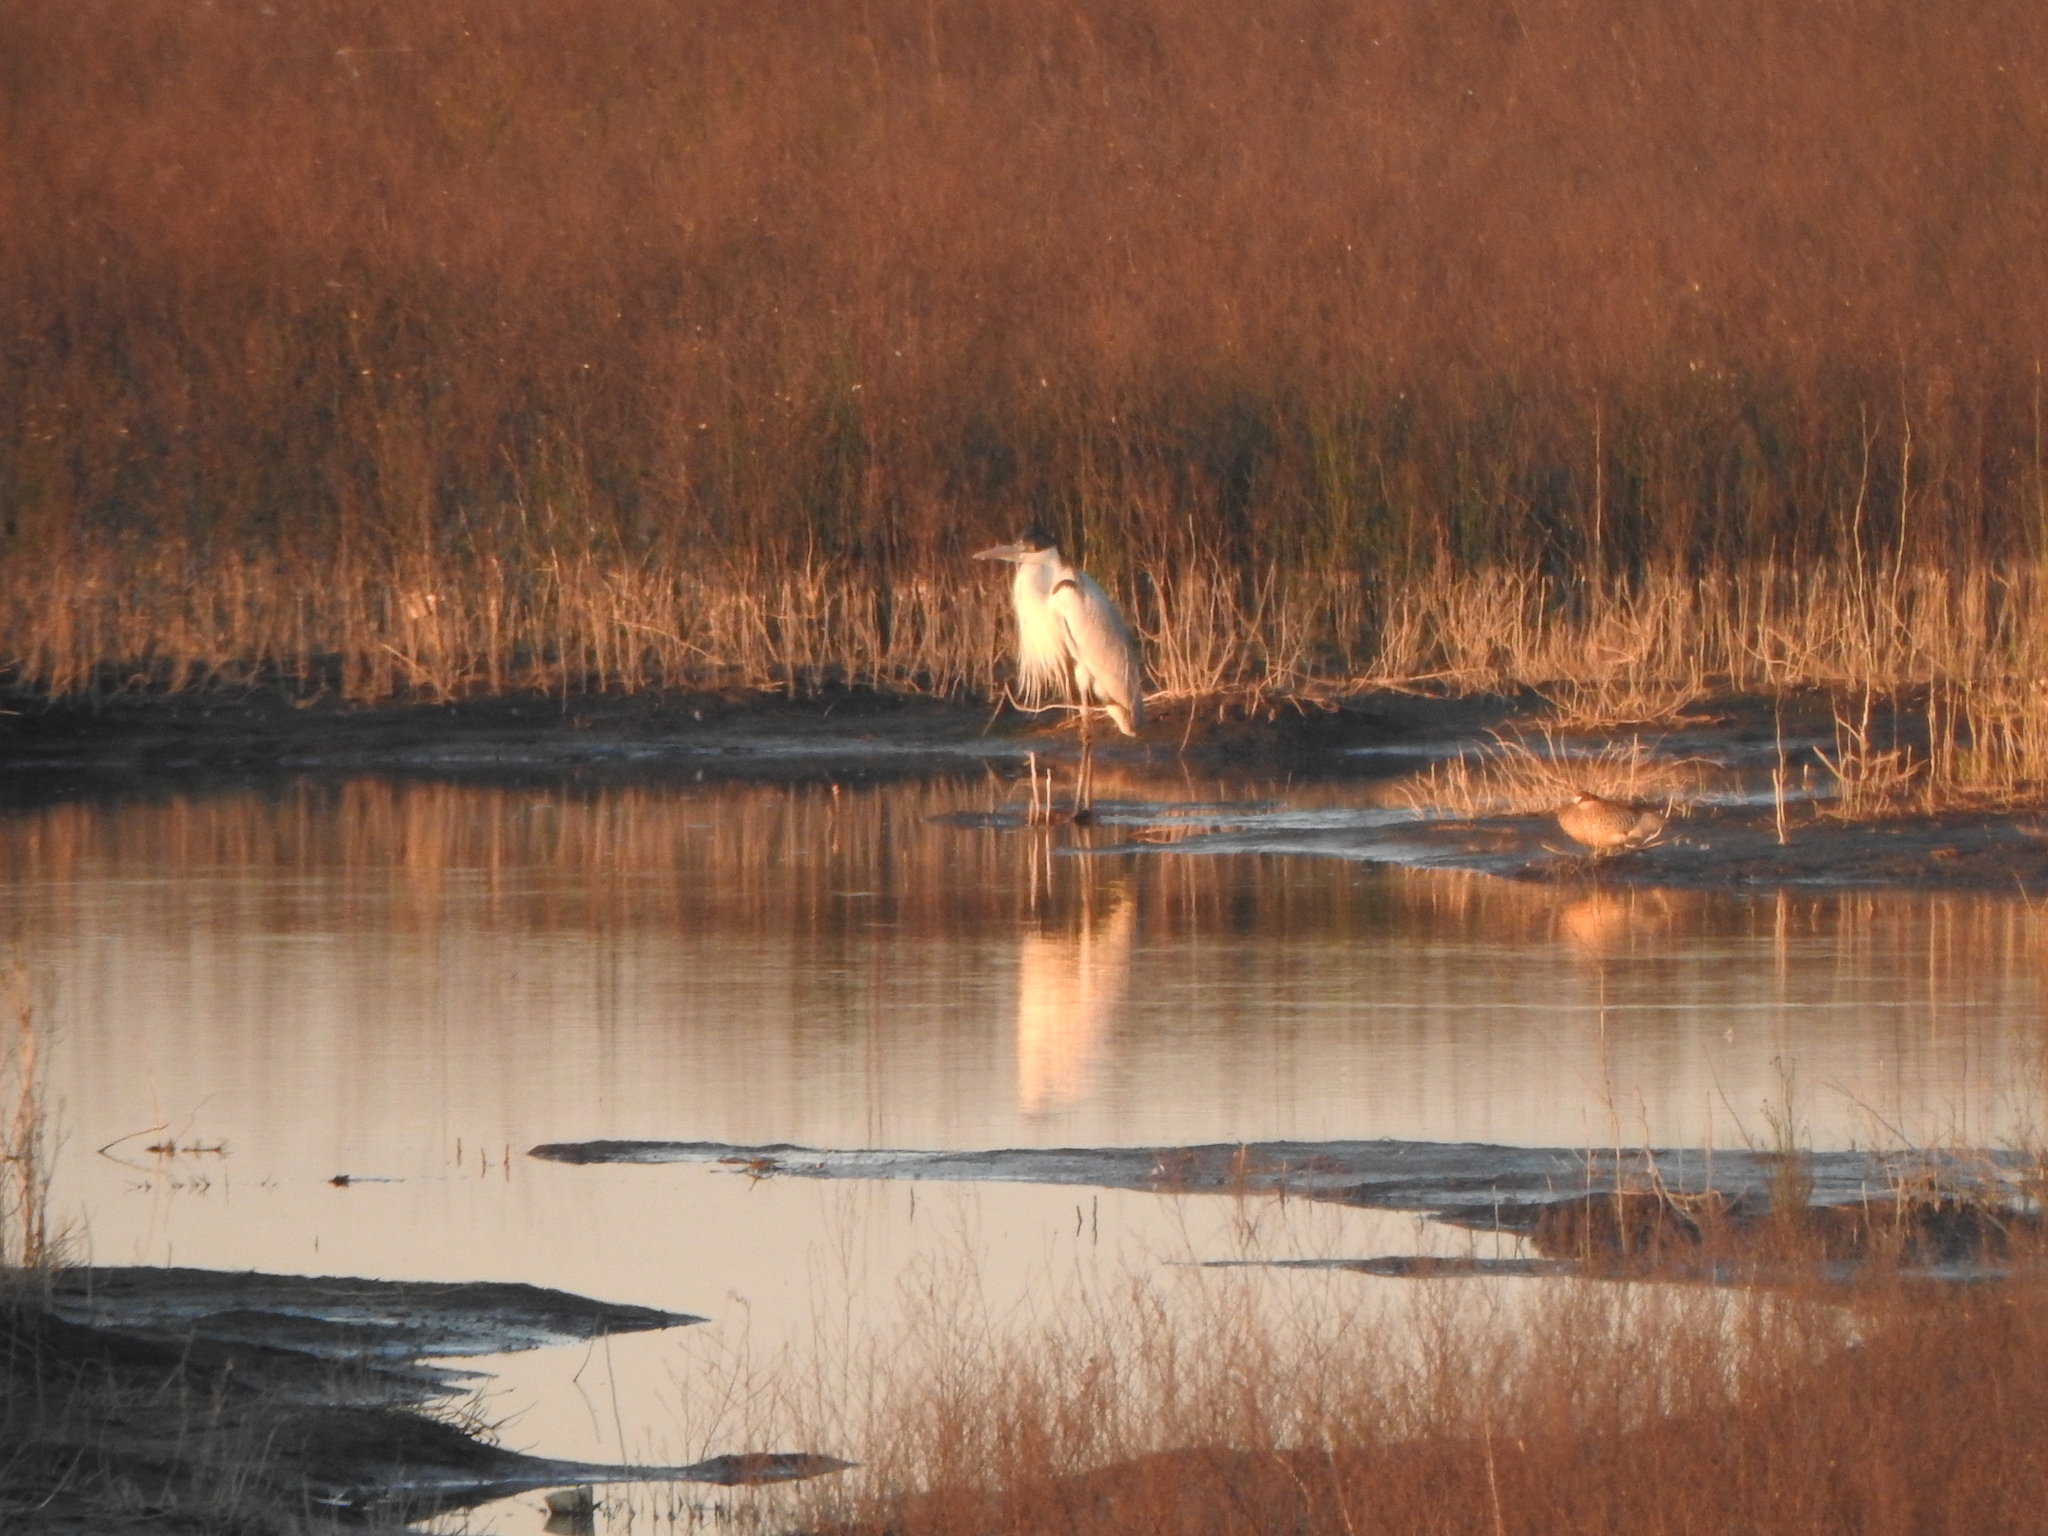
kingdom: Animalia
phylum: Chordata
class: Aves
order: Pelecaniformes
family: Ardeidae
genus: Ardea
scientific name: Ardea cocoi
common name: Cocoi heron
